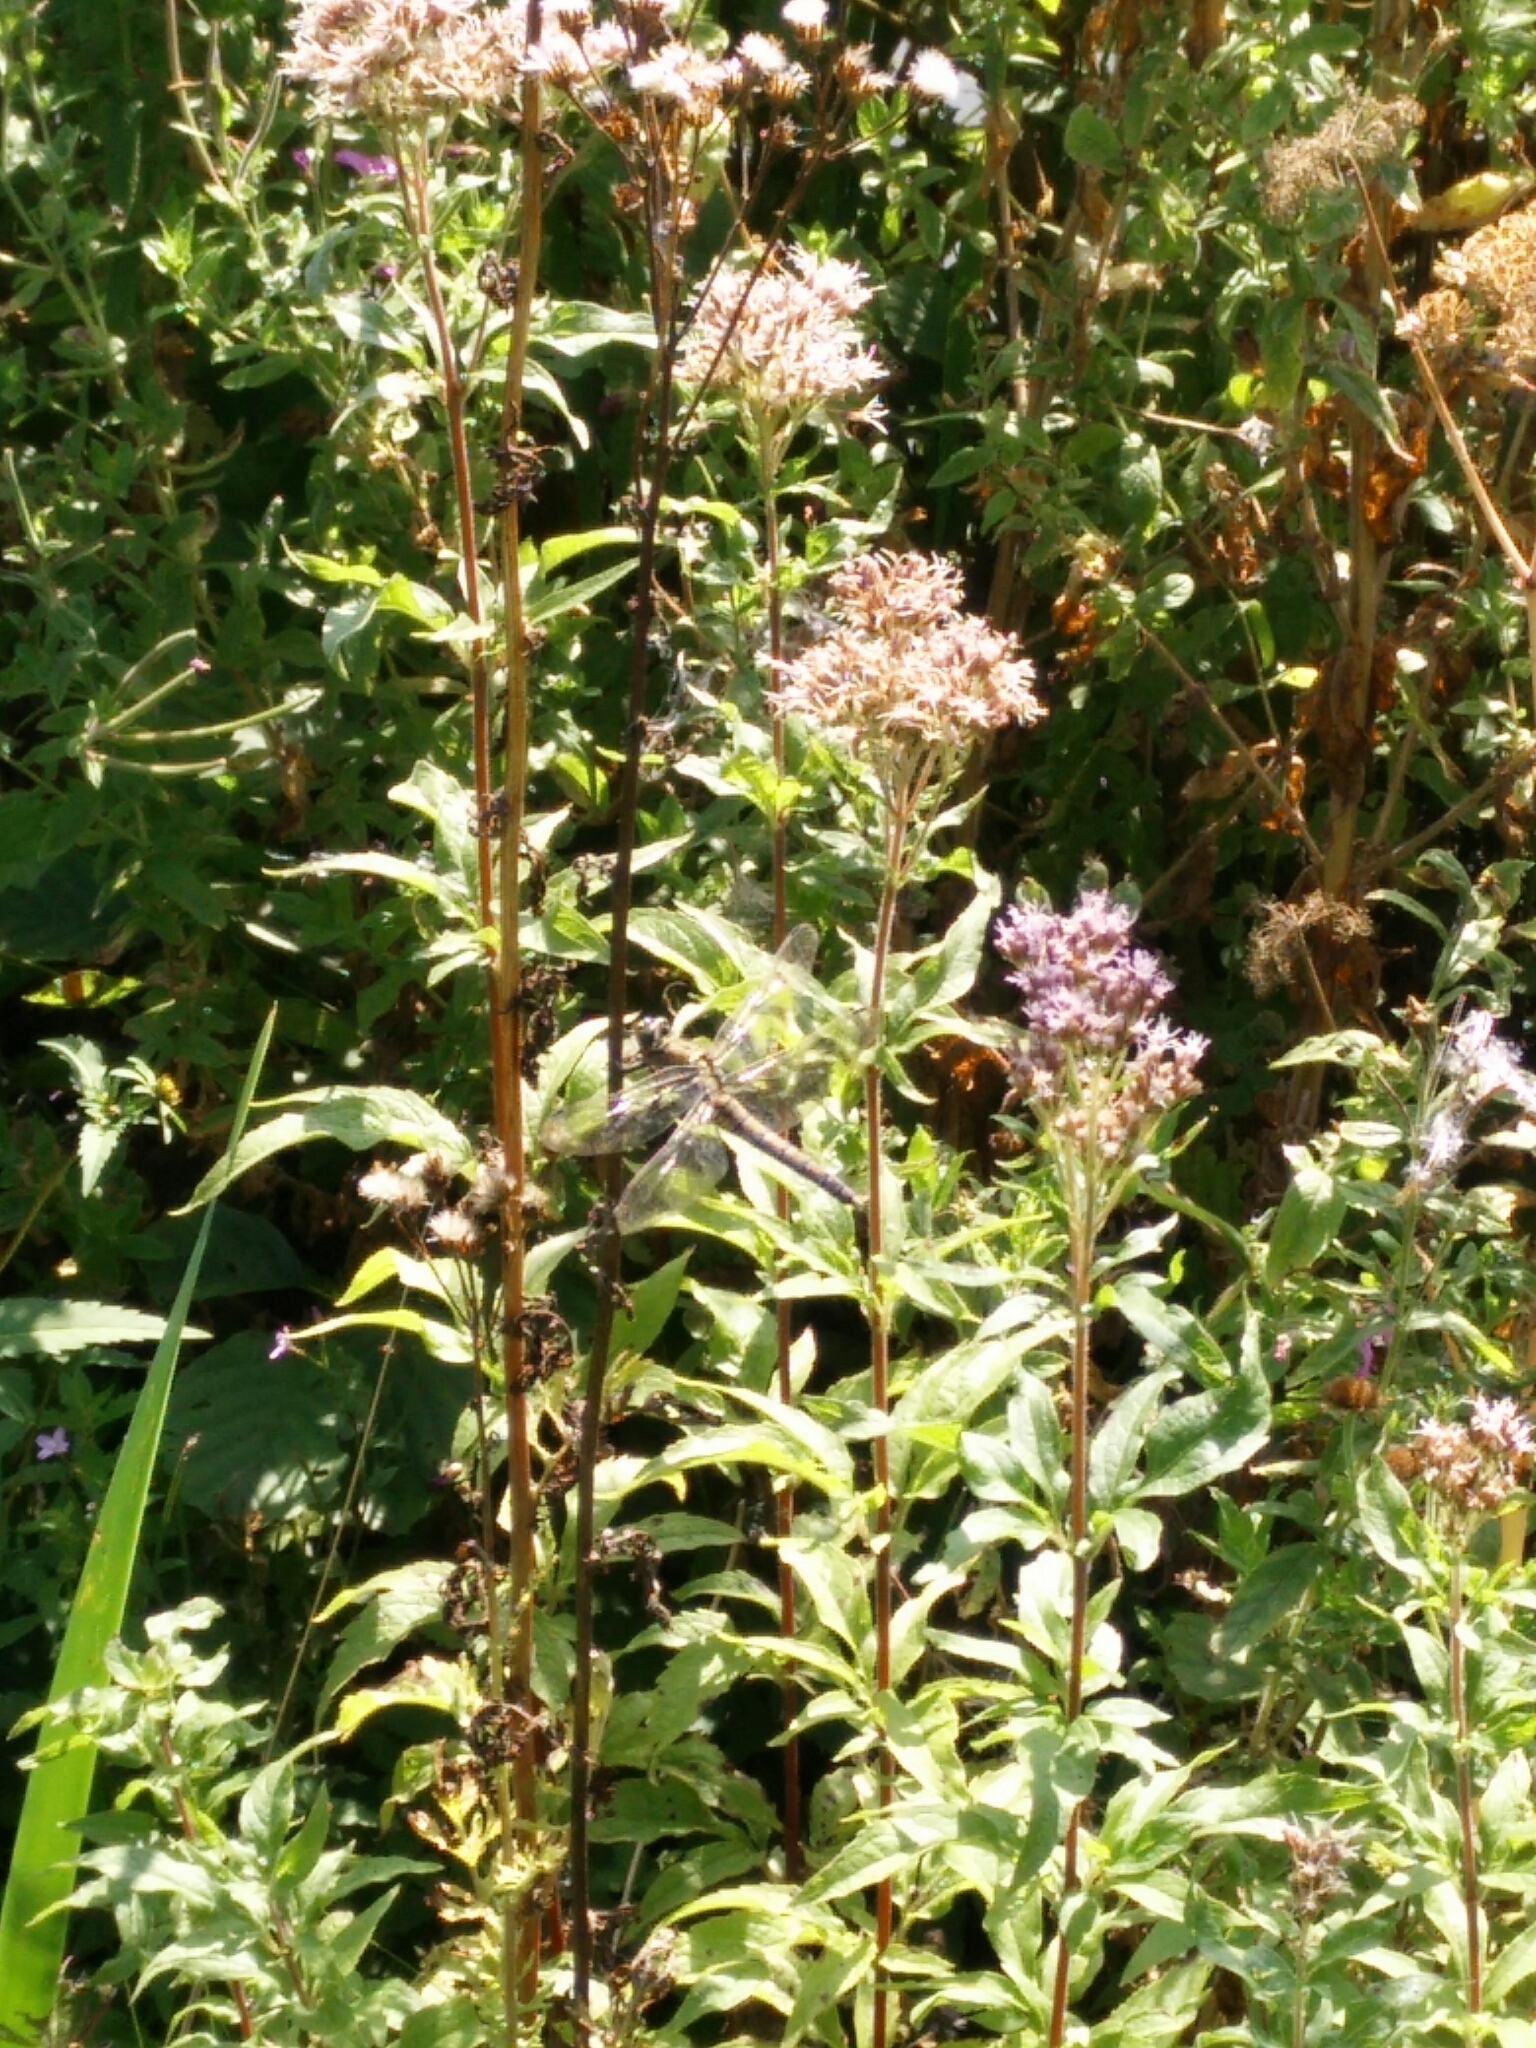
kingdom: Animalia
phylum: Arthropoda
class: Insecta
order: Odonata
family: Libellulidae
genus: Orthetrum
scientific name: Orthetrum cancellatum
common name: Black-tailed skimmer
